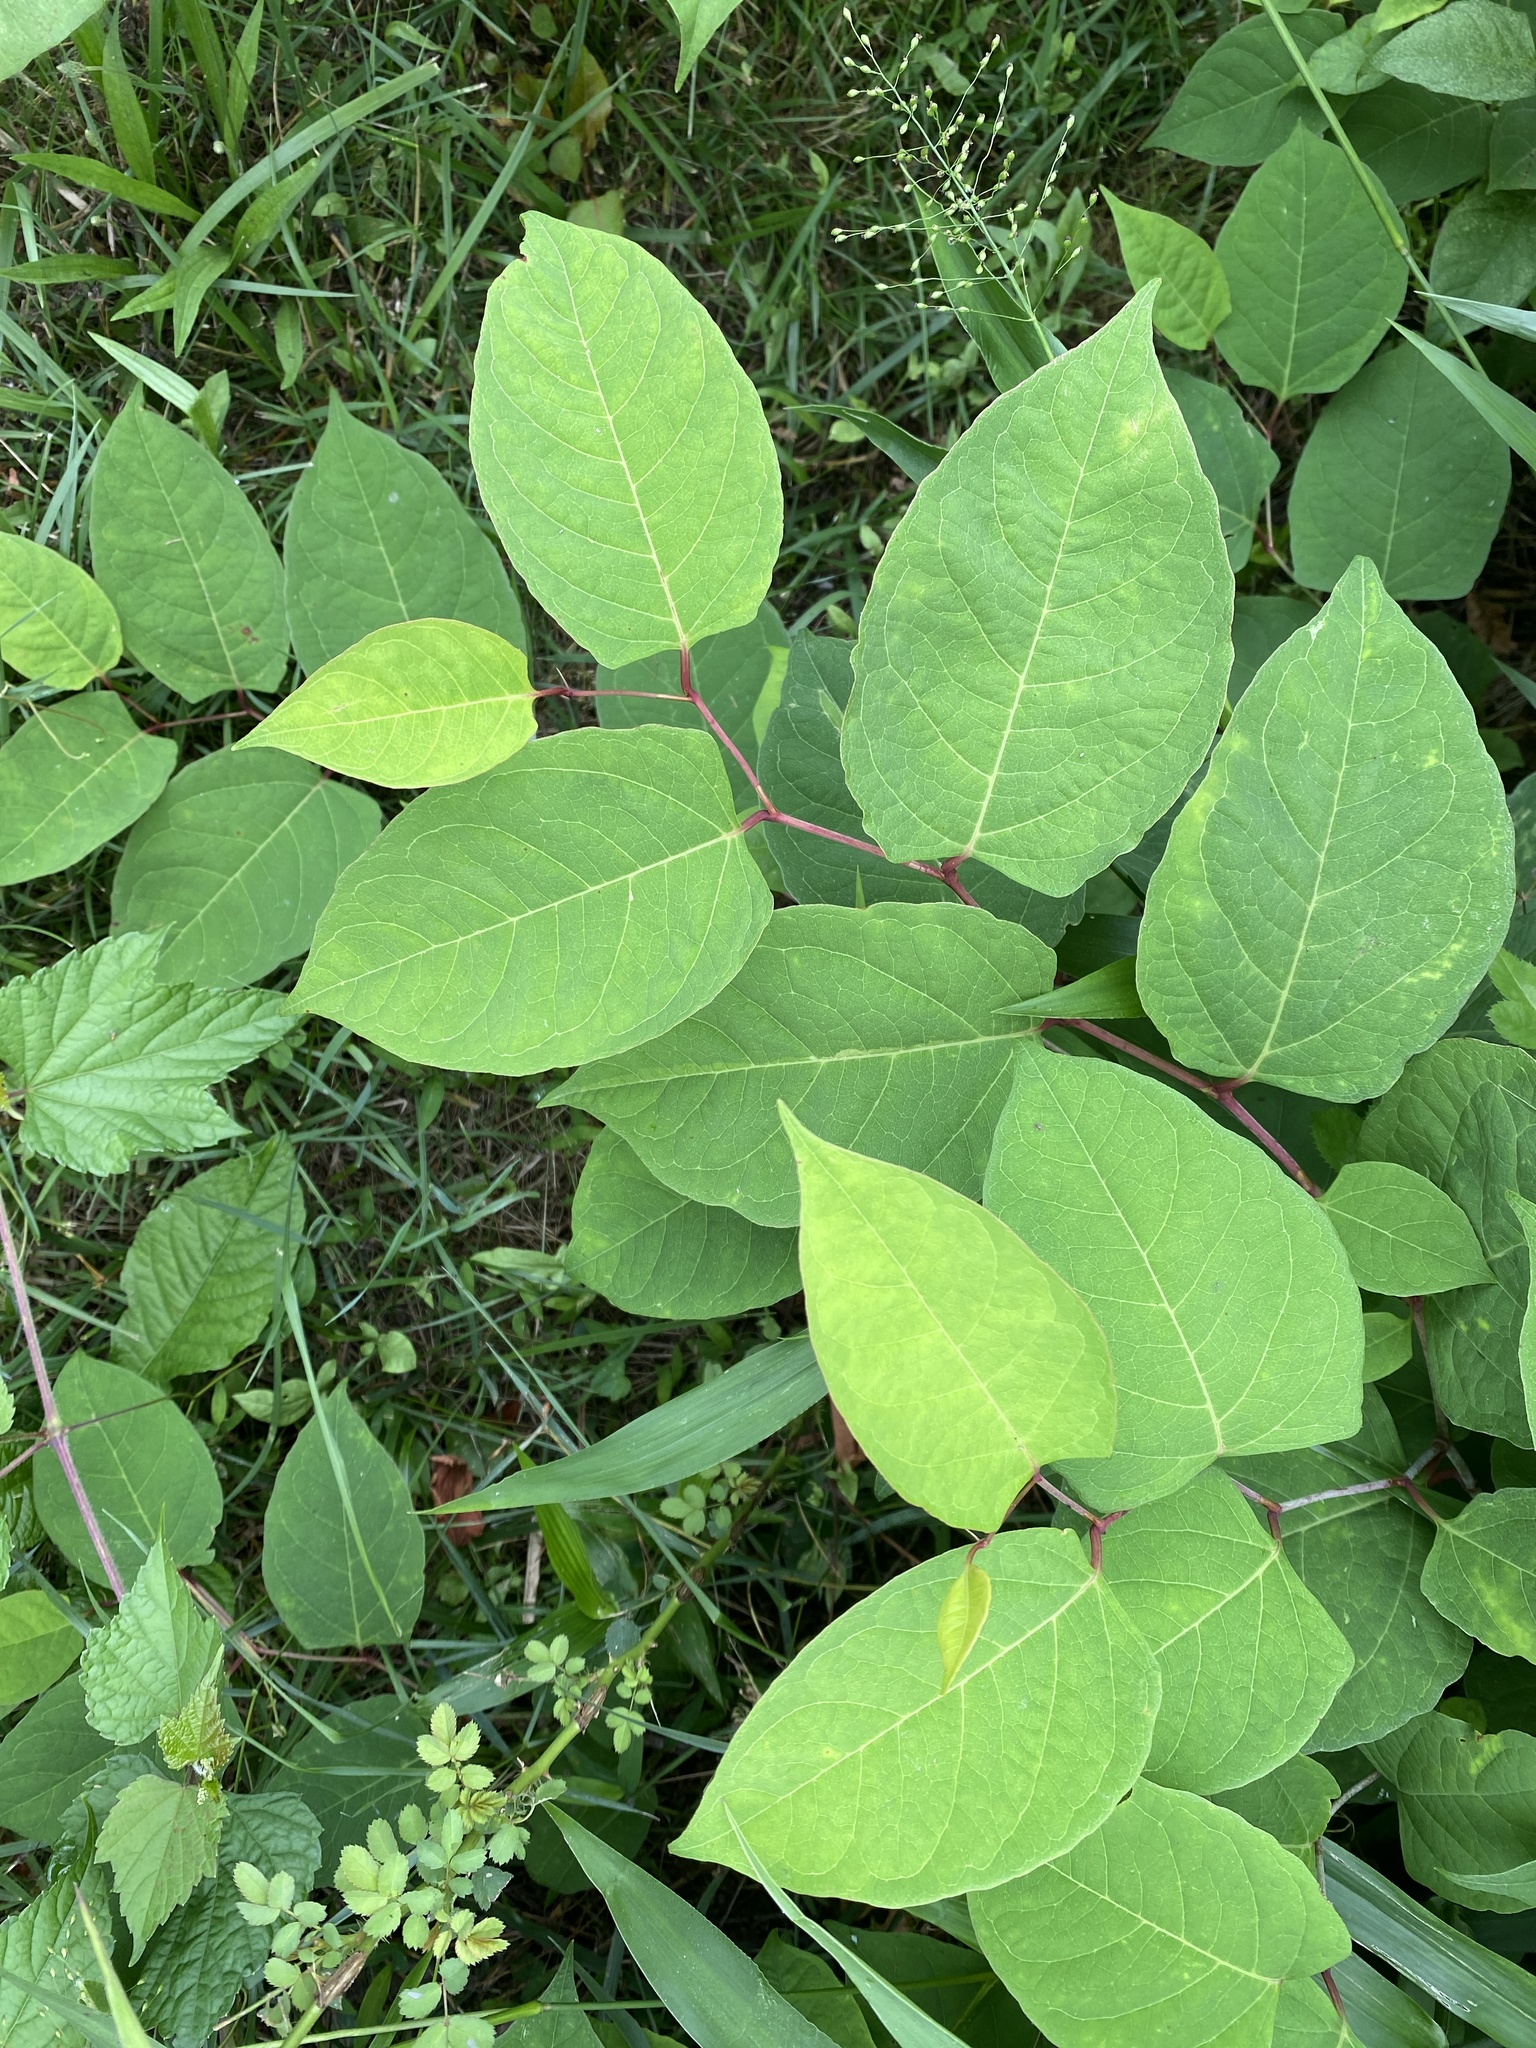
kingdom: Plantae
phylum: Tracheophyta
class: Magnoliopsida
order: Caryophyllales
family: Polygonaceae
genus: Reynoutria
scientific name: Reynoutria japonica
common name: Japanese knotweed
